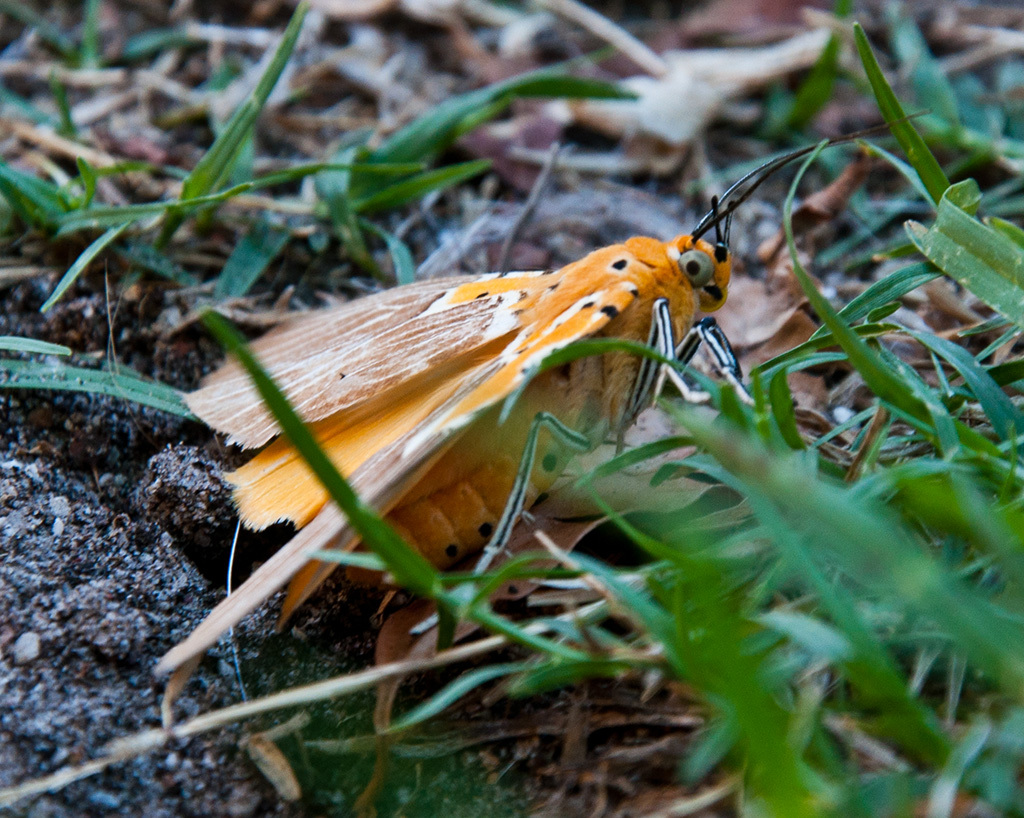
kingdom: Animalia
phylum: Arthropoda
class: Insecta
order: Lepidoptera
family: Erebidae
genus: Asota
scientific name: Asota speciosa
